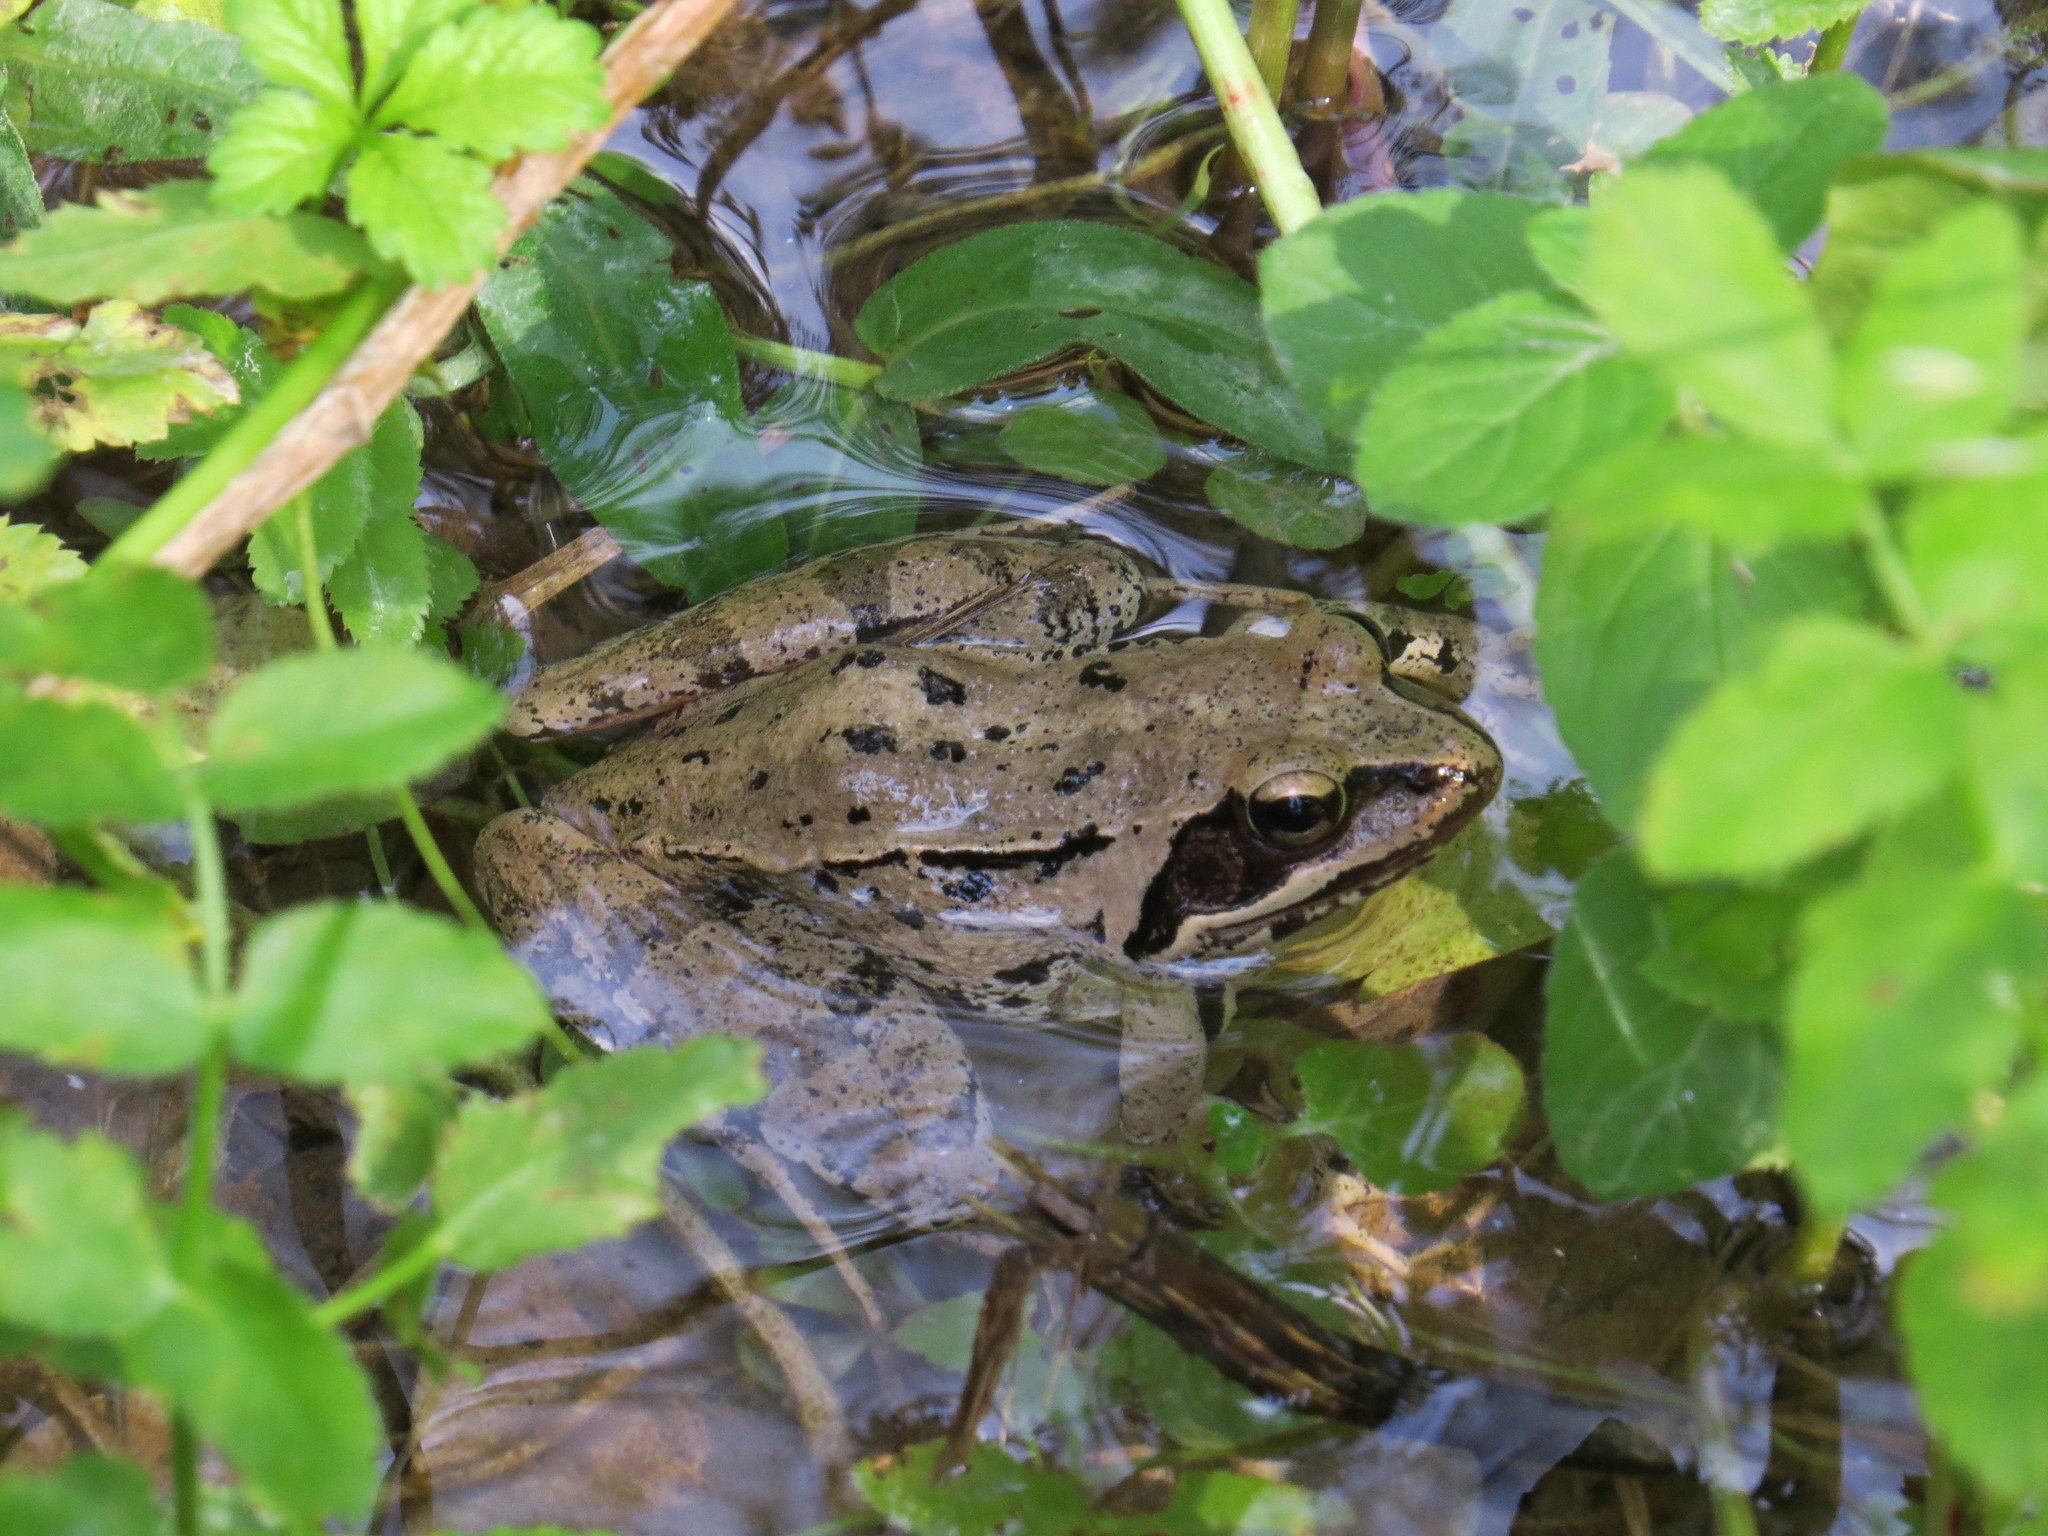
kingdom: Animalia
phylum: Chordata
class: Amphibia
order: Anura
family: Ranidae
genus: Rana
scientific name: Rana dalmatina
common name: Agile frog
